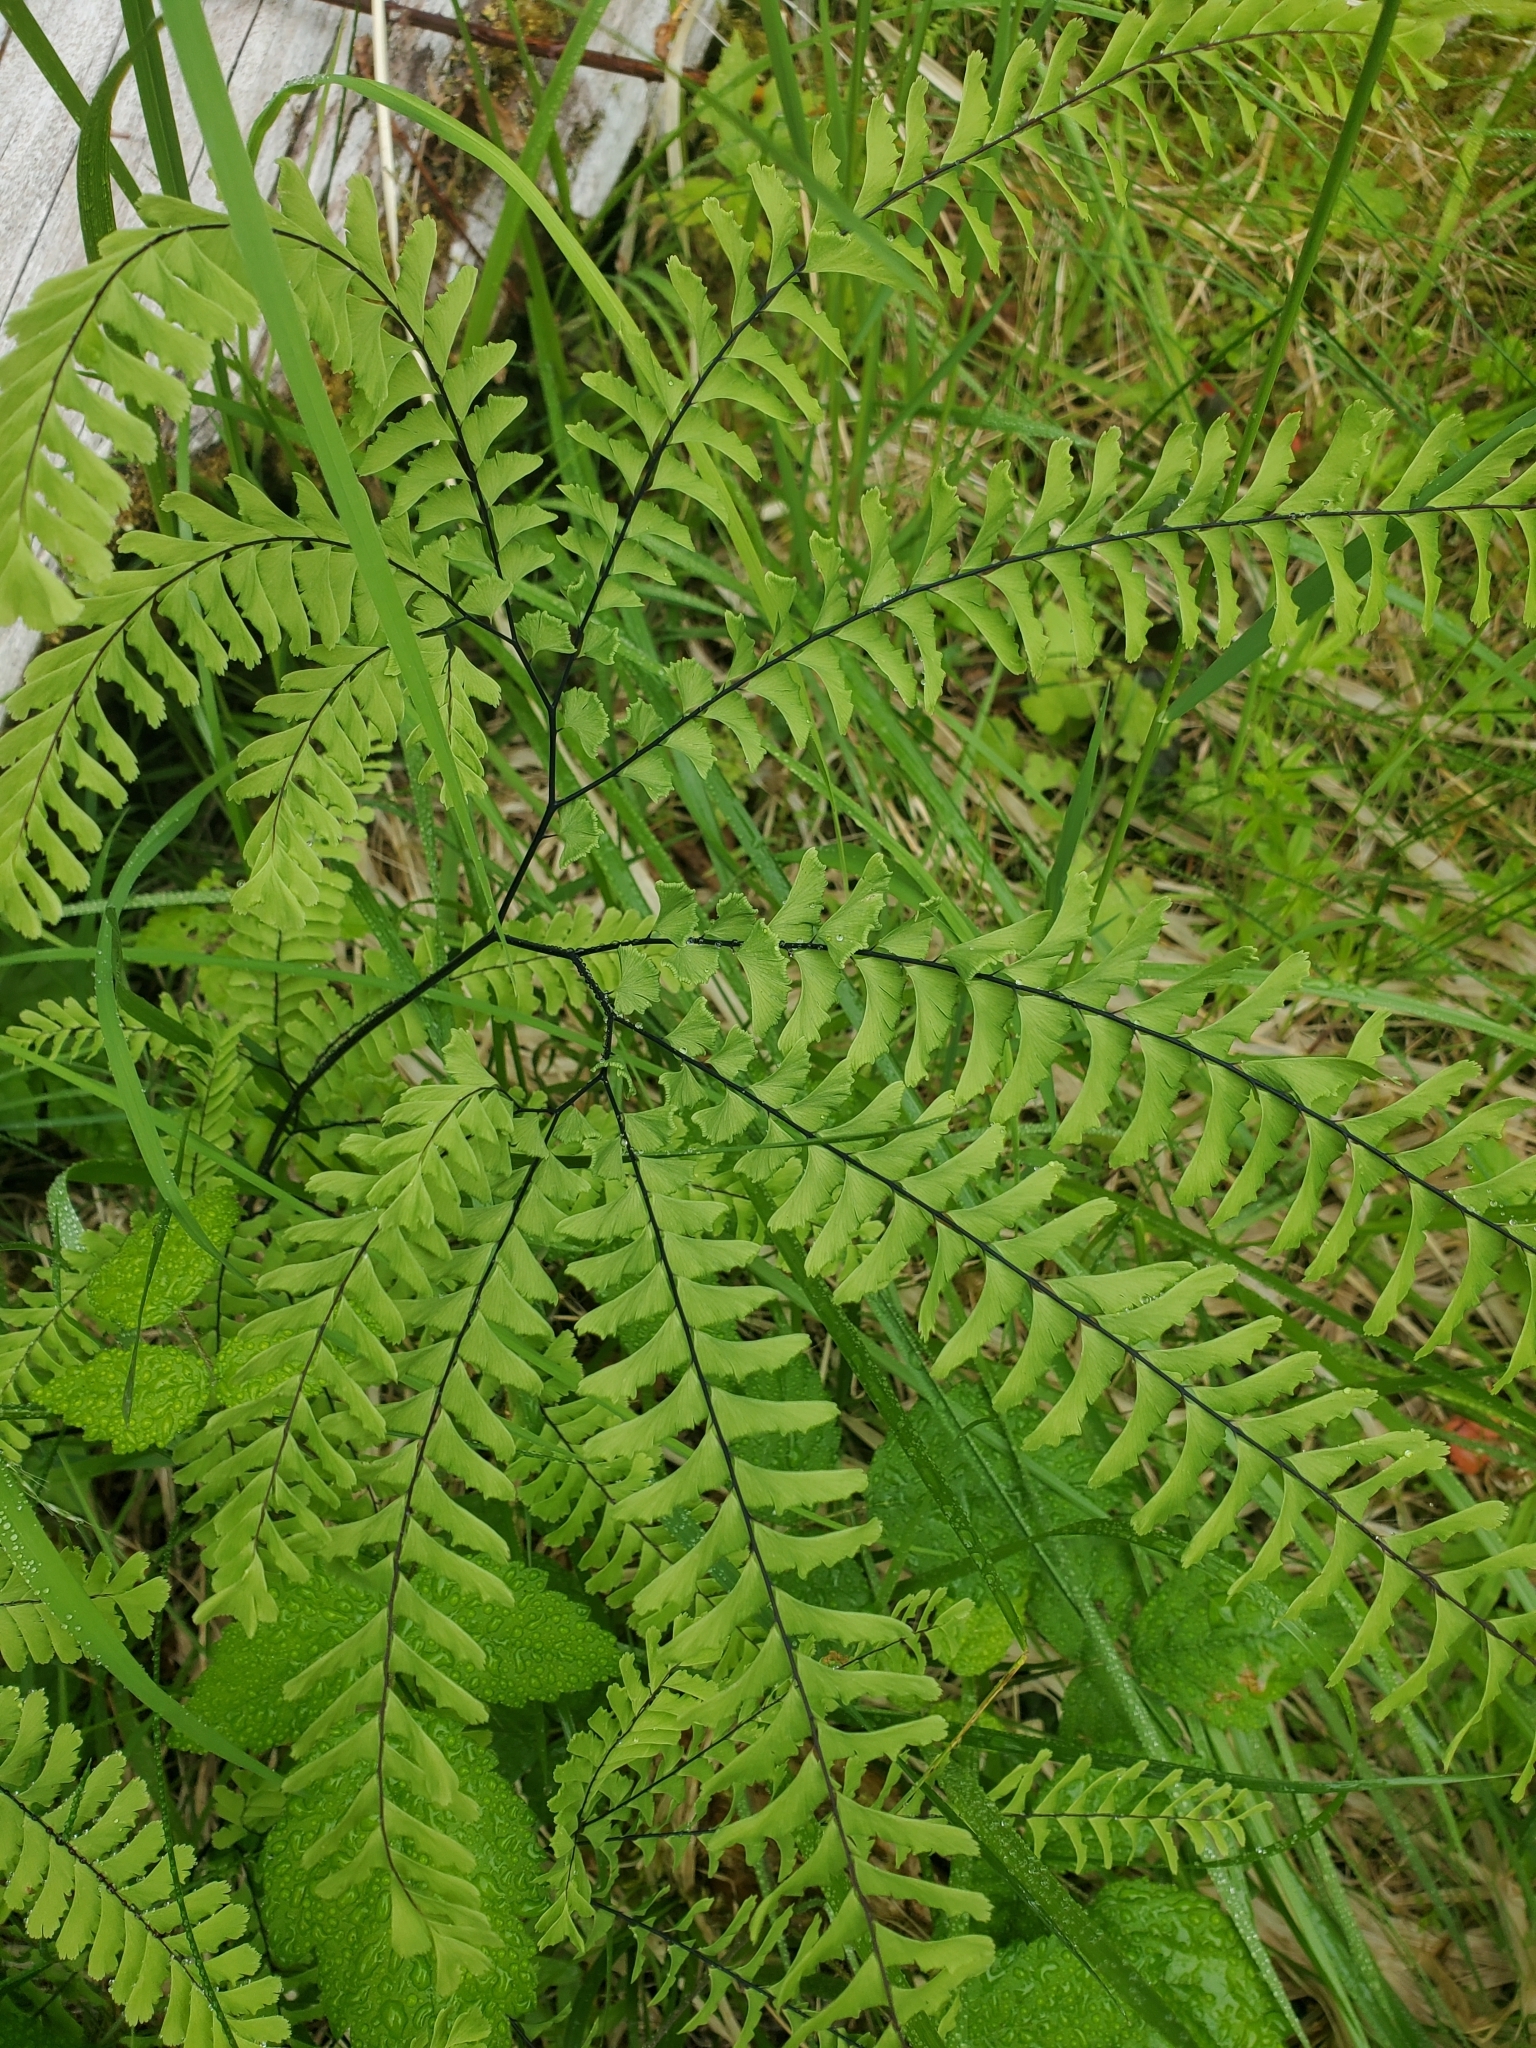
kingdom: Plantae
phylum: Tracheophyta
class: Polypodiopsida
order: Polypodiales
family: Pteridaceae
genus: Adiantum
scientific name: Adiantum aleuticum
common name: Aleutian maidenhair fern
